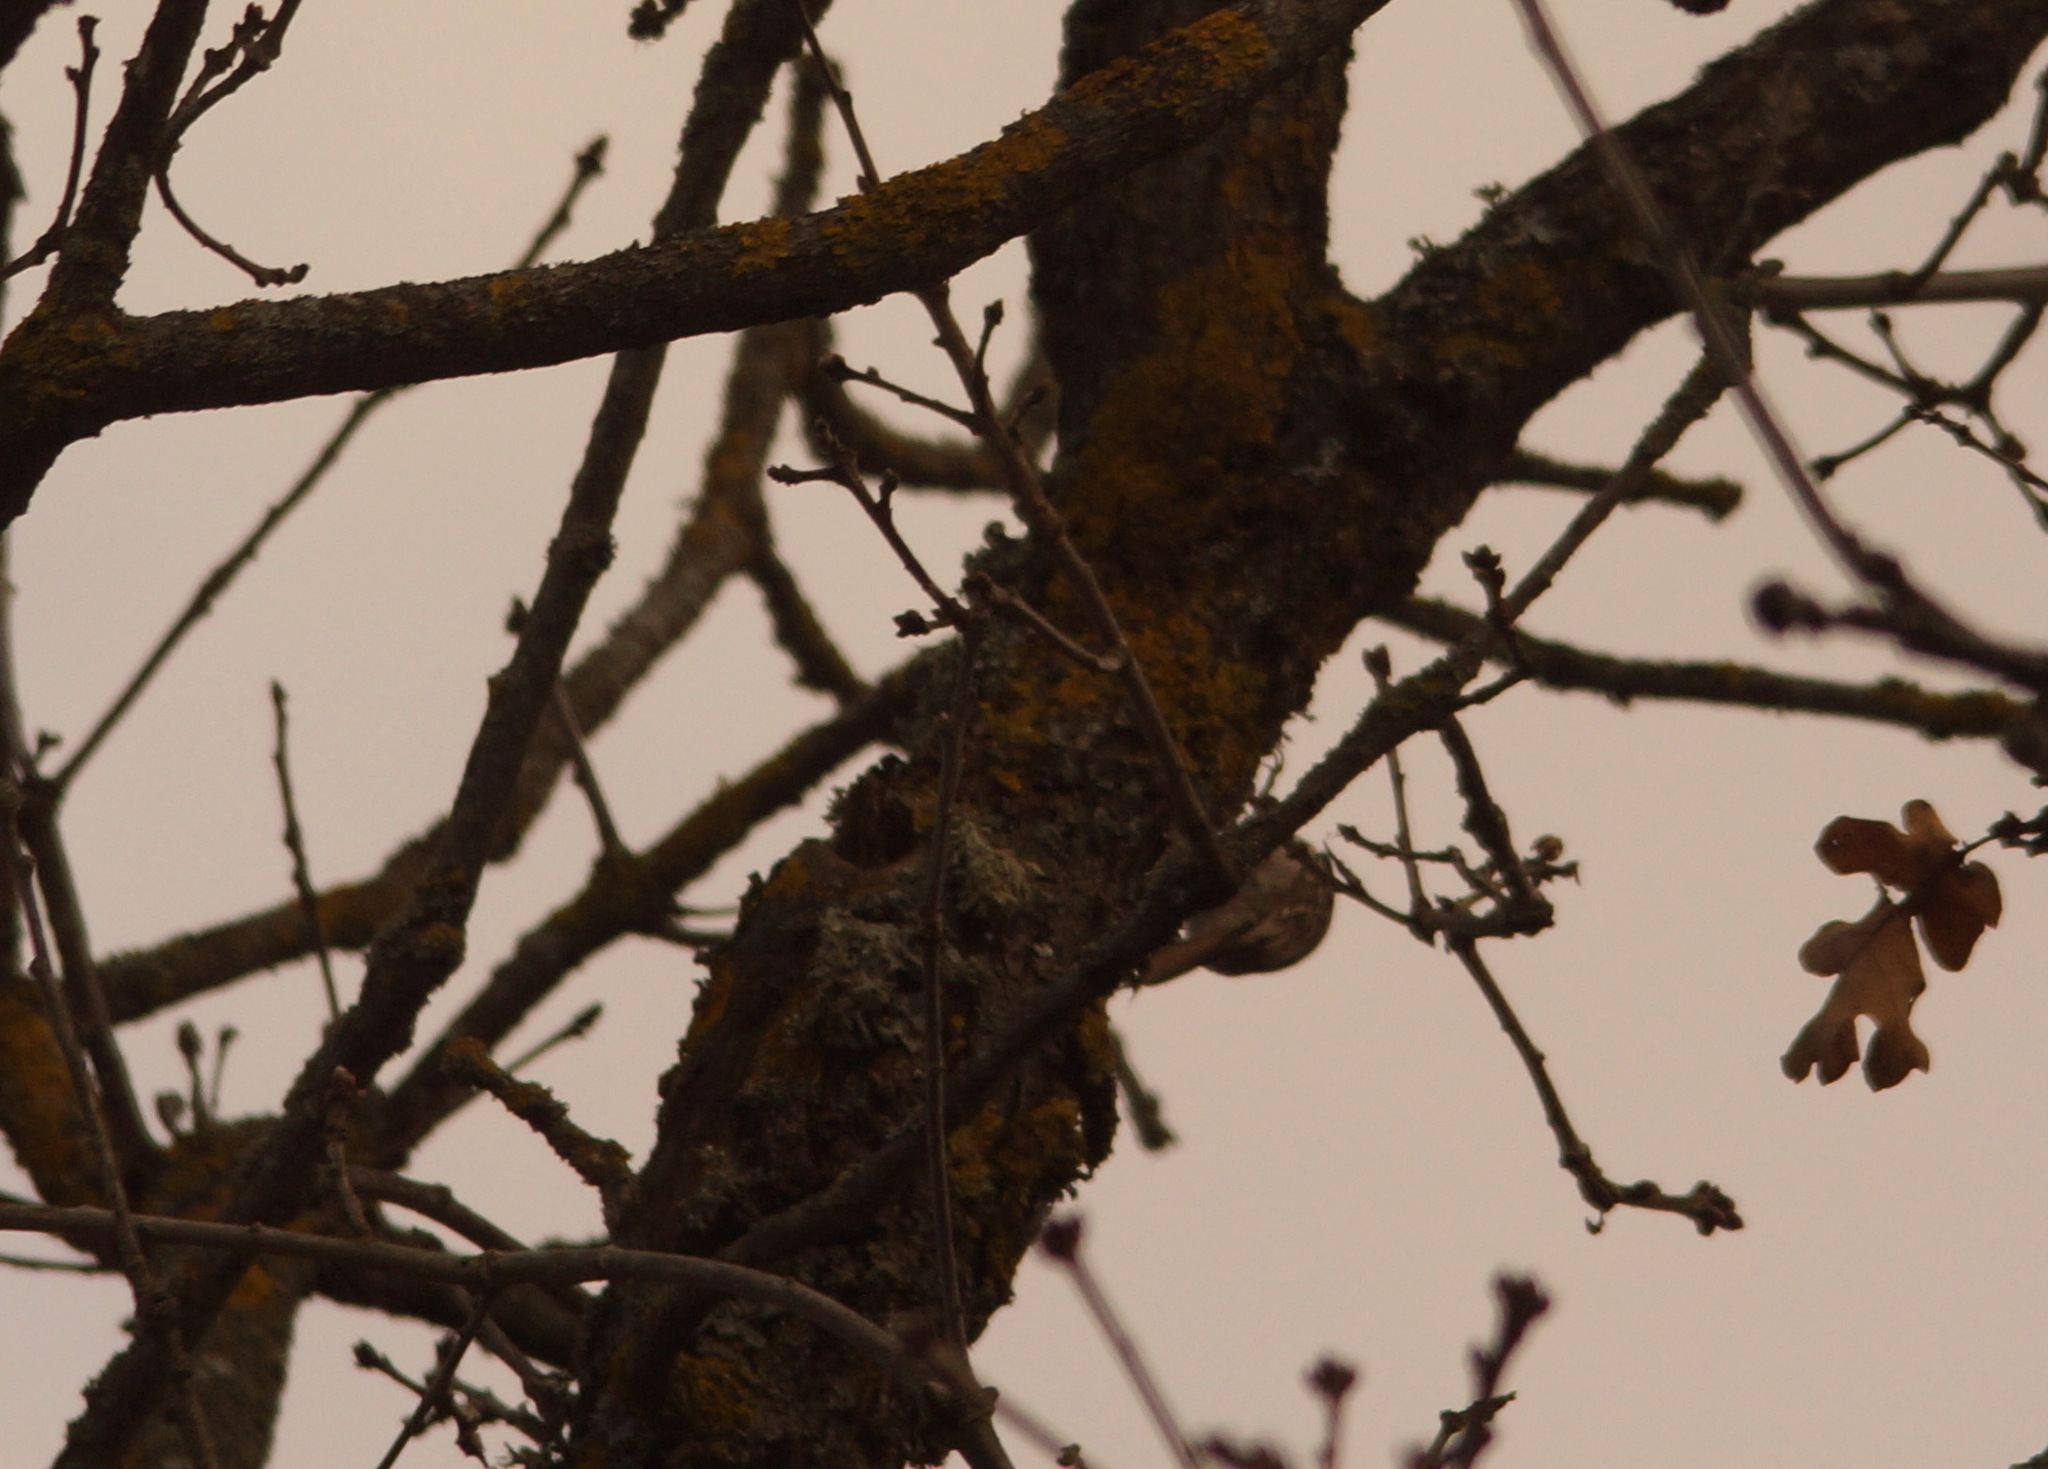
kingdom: Animalia
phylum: Chordata
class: Aves
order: Passeriformes
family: Certhiidae
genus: Certhia
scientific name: Certhia familiaris
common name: Eurasian treecreeper
